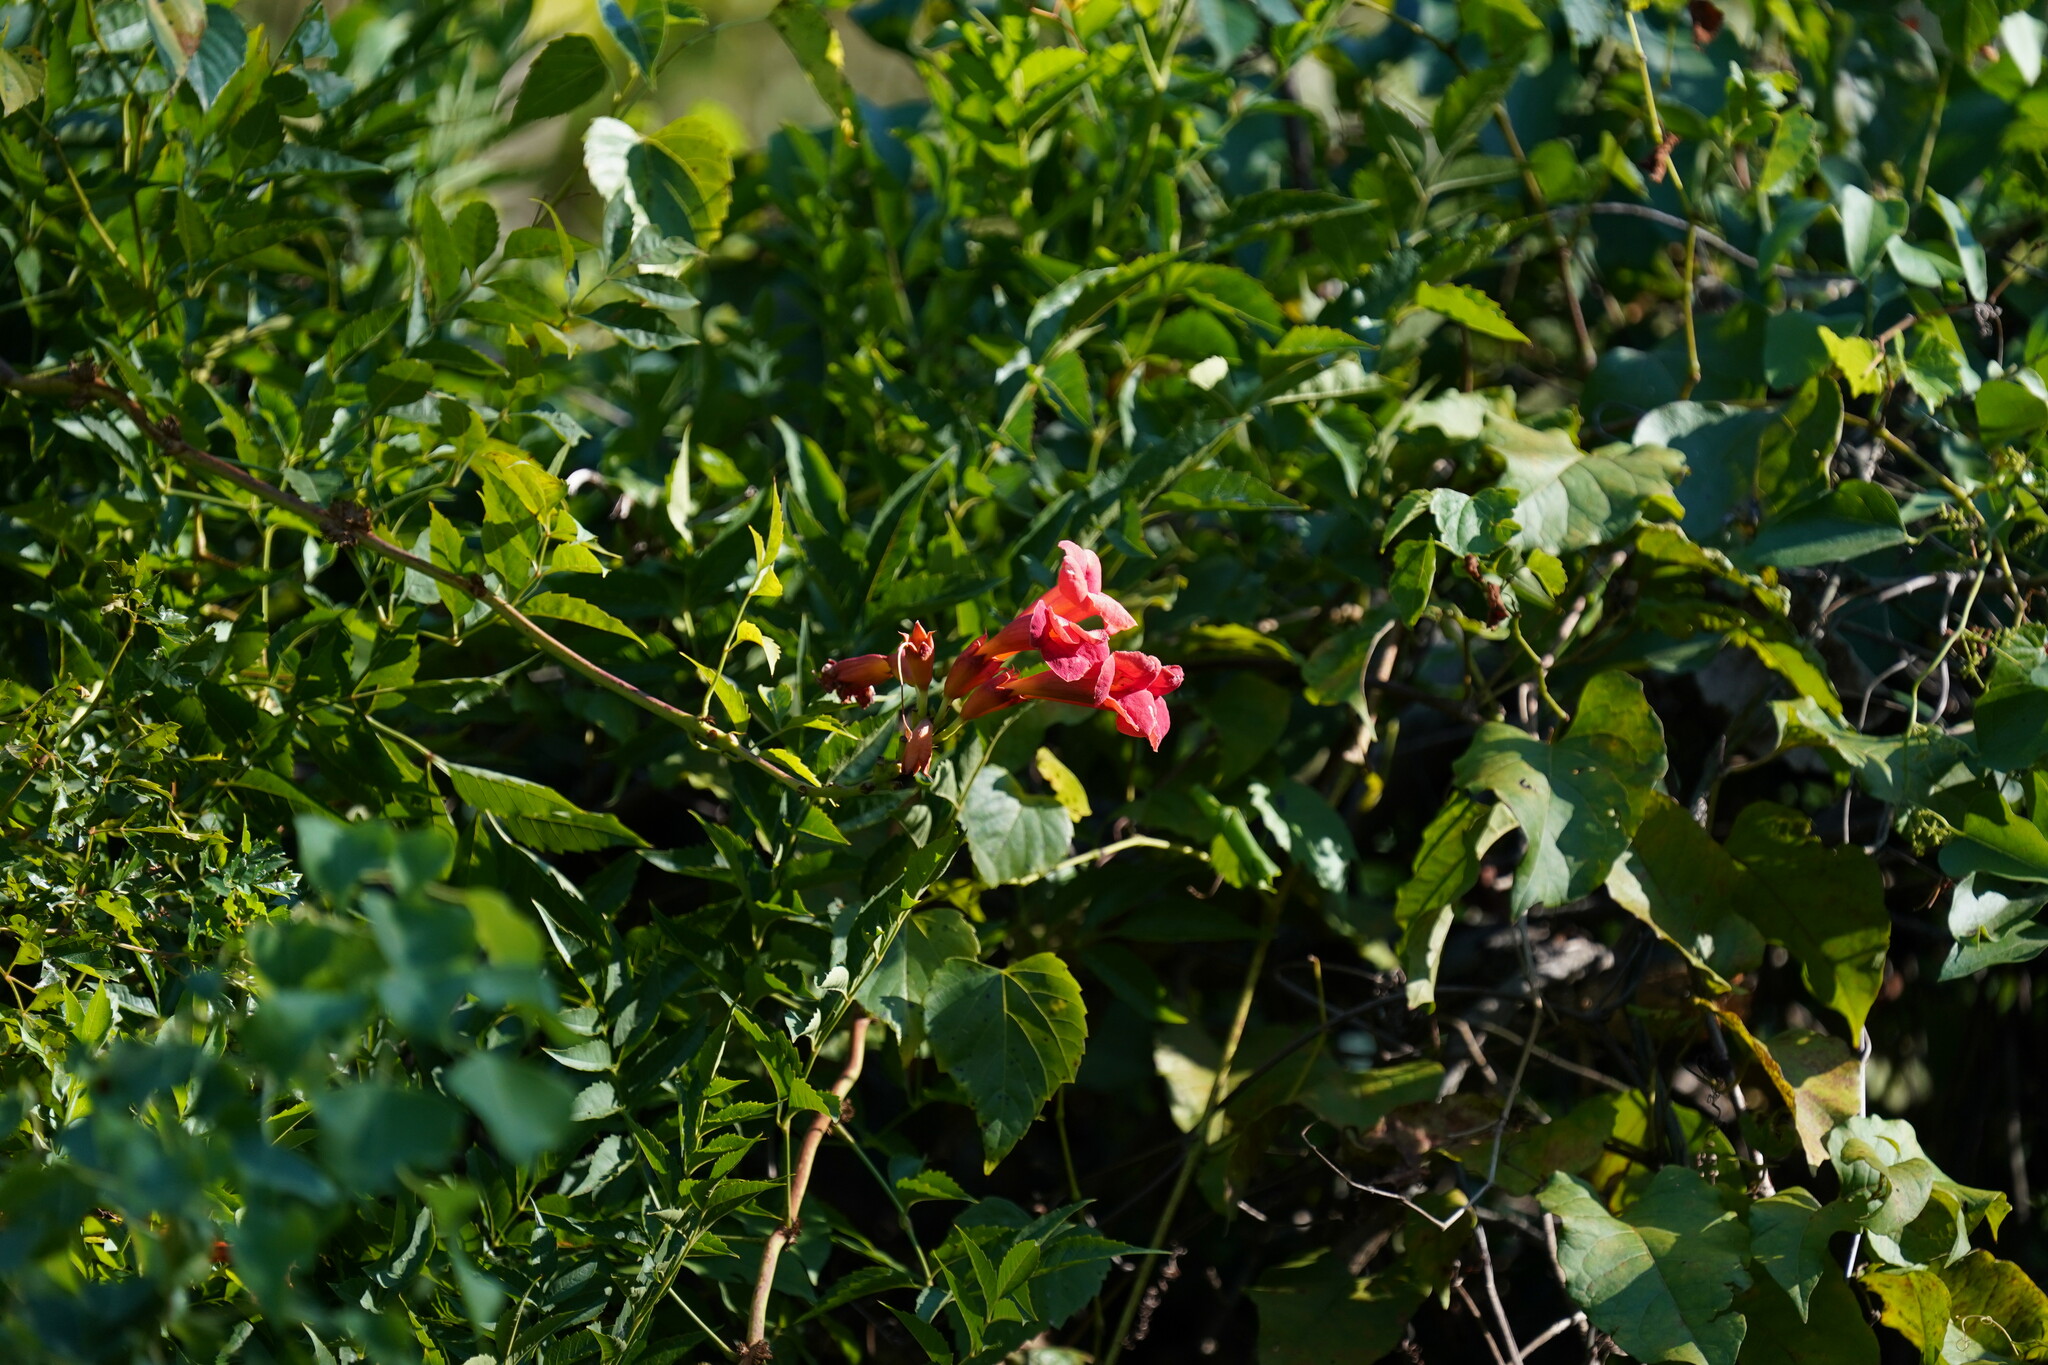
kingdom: Plantae
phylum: Tracheophyta
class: Magnoliopsida
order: Lamiales
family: Bignoniaceae
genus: Campsis
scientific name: Campsis radicans
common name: Trumpet-creeper
